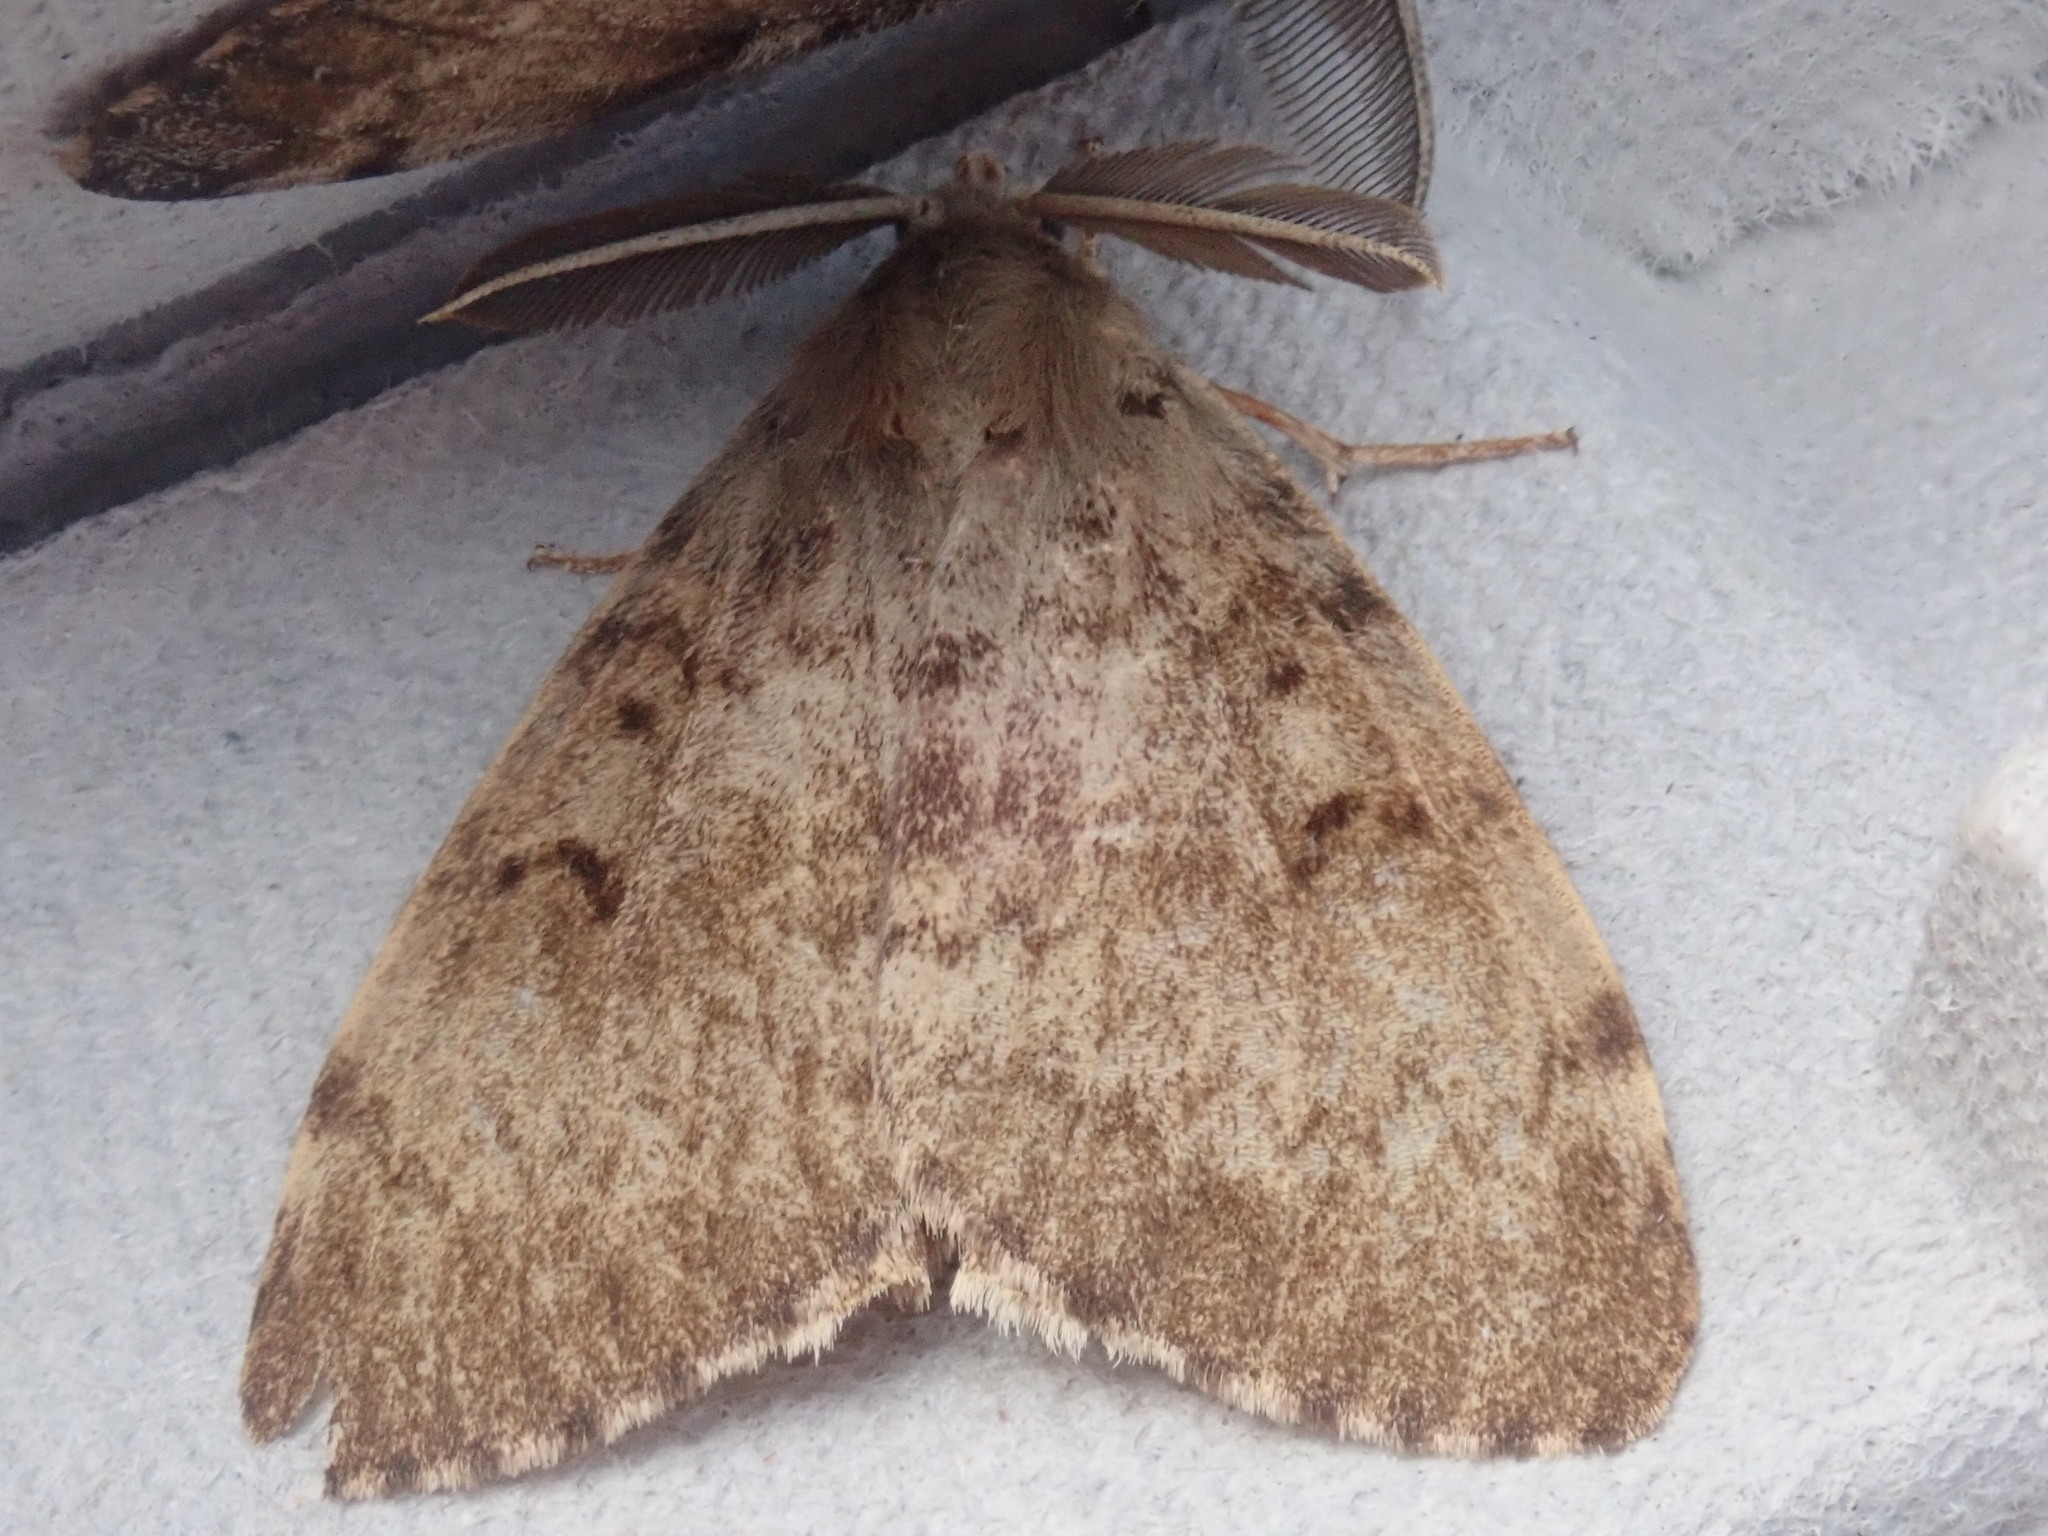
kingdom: Animalia
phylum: Arthropoda
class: Insecta
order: Lepidoptera
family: Erebidae
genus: Lymantria
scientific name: Lymantria dispar
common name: Gypsy moth
